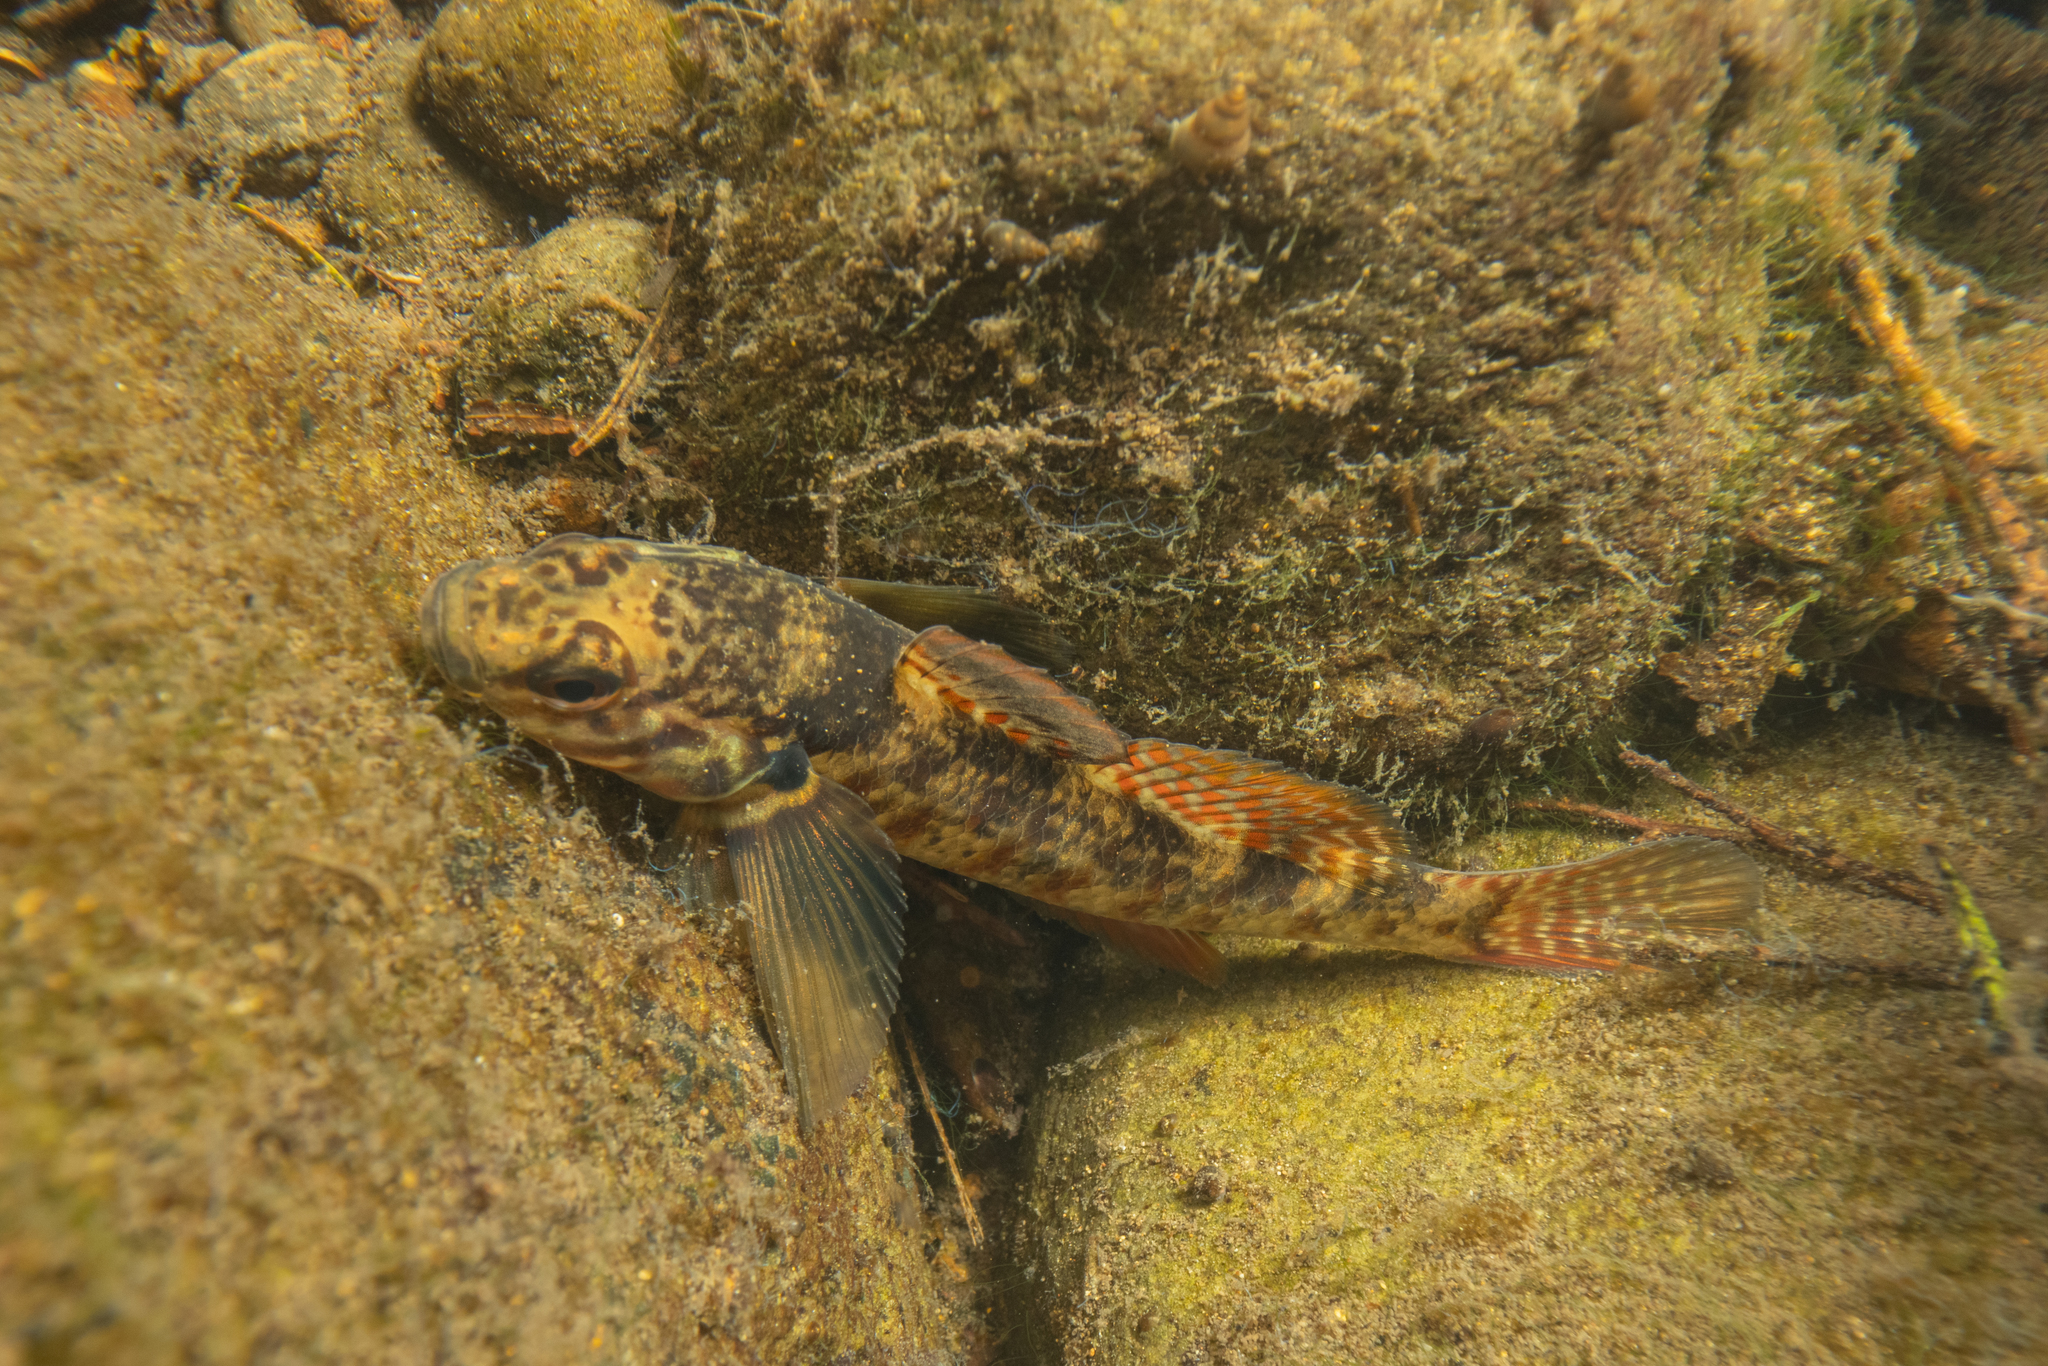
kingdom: Animalia
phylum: Chordata
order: Perciformes
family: Eleotridae
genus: Gobiomorphus
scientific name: Gobiomorphus huttoni
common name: Redfin bully
